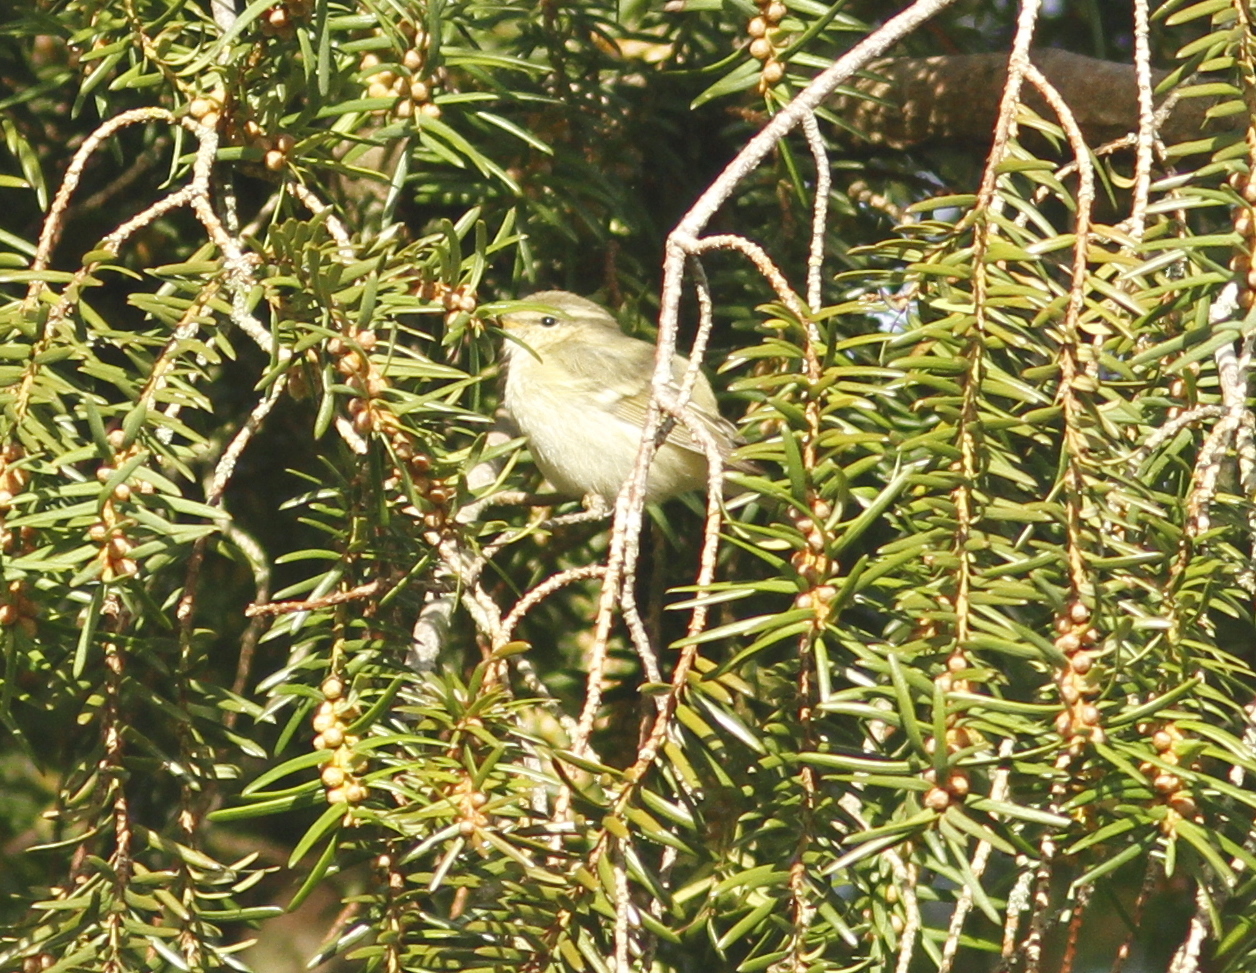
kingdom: Animalia
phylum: Chordata
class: Aves
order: Passeriformes
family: Phylloscopidae
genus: Phylloscopus
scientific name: Phylloscopus humei
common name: Hume's leaf warbler
